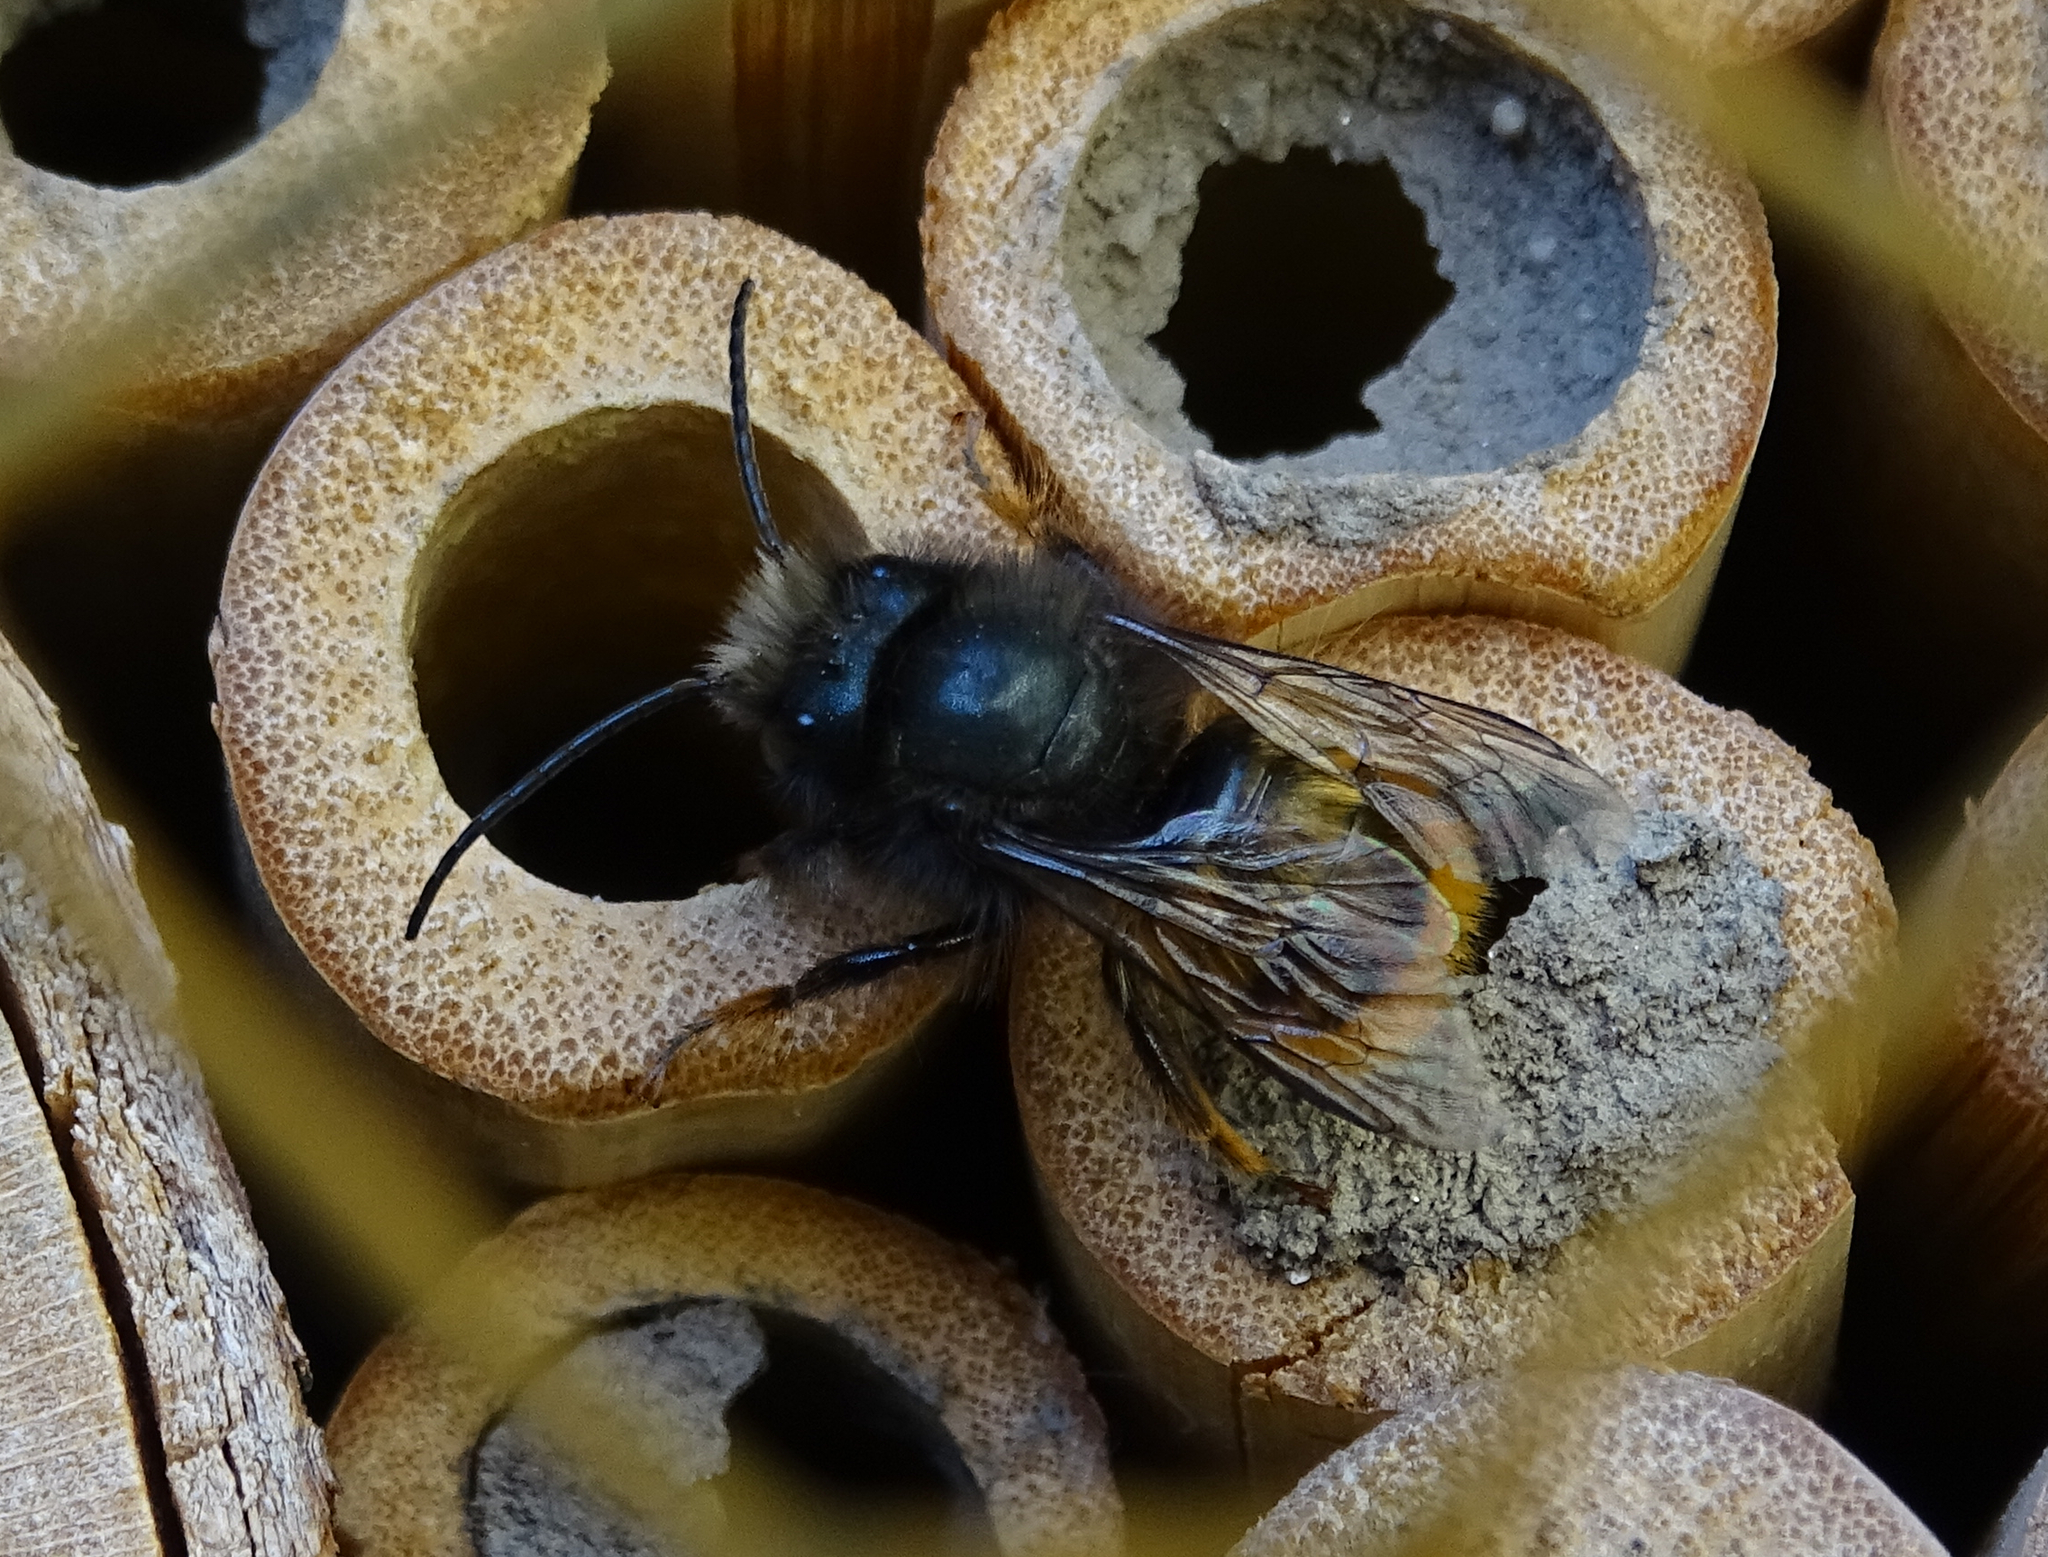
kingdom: Animalia
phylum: Arthropoda
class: Insecta
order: Hymenoptera
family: Megachilidae
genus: Osmia
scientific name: Osmia cornuta
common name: Mason bee
